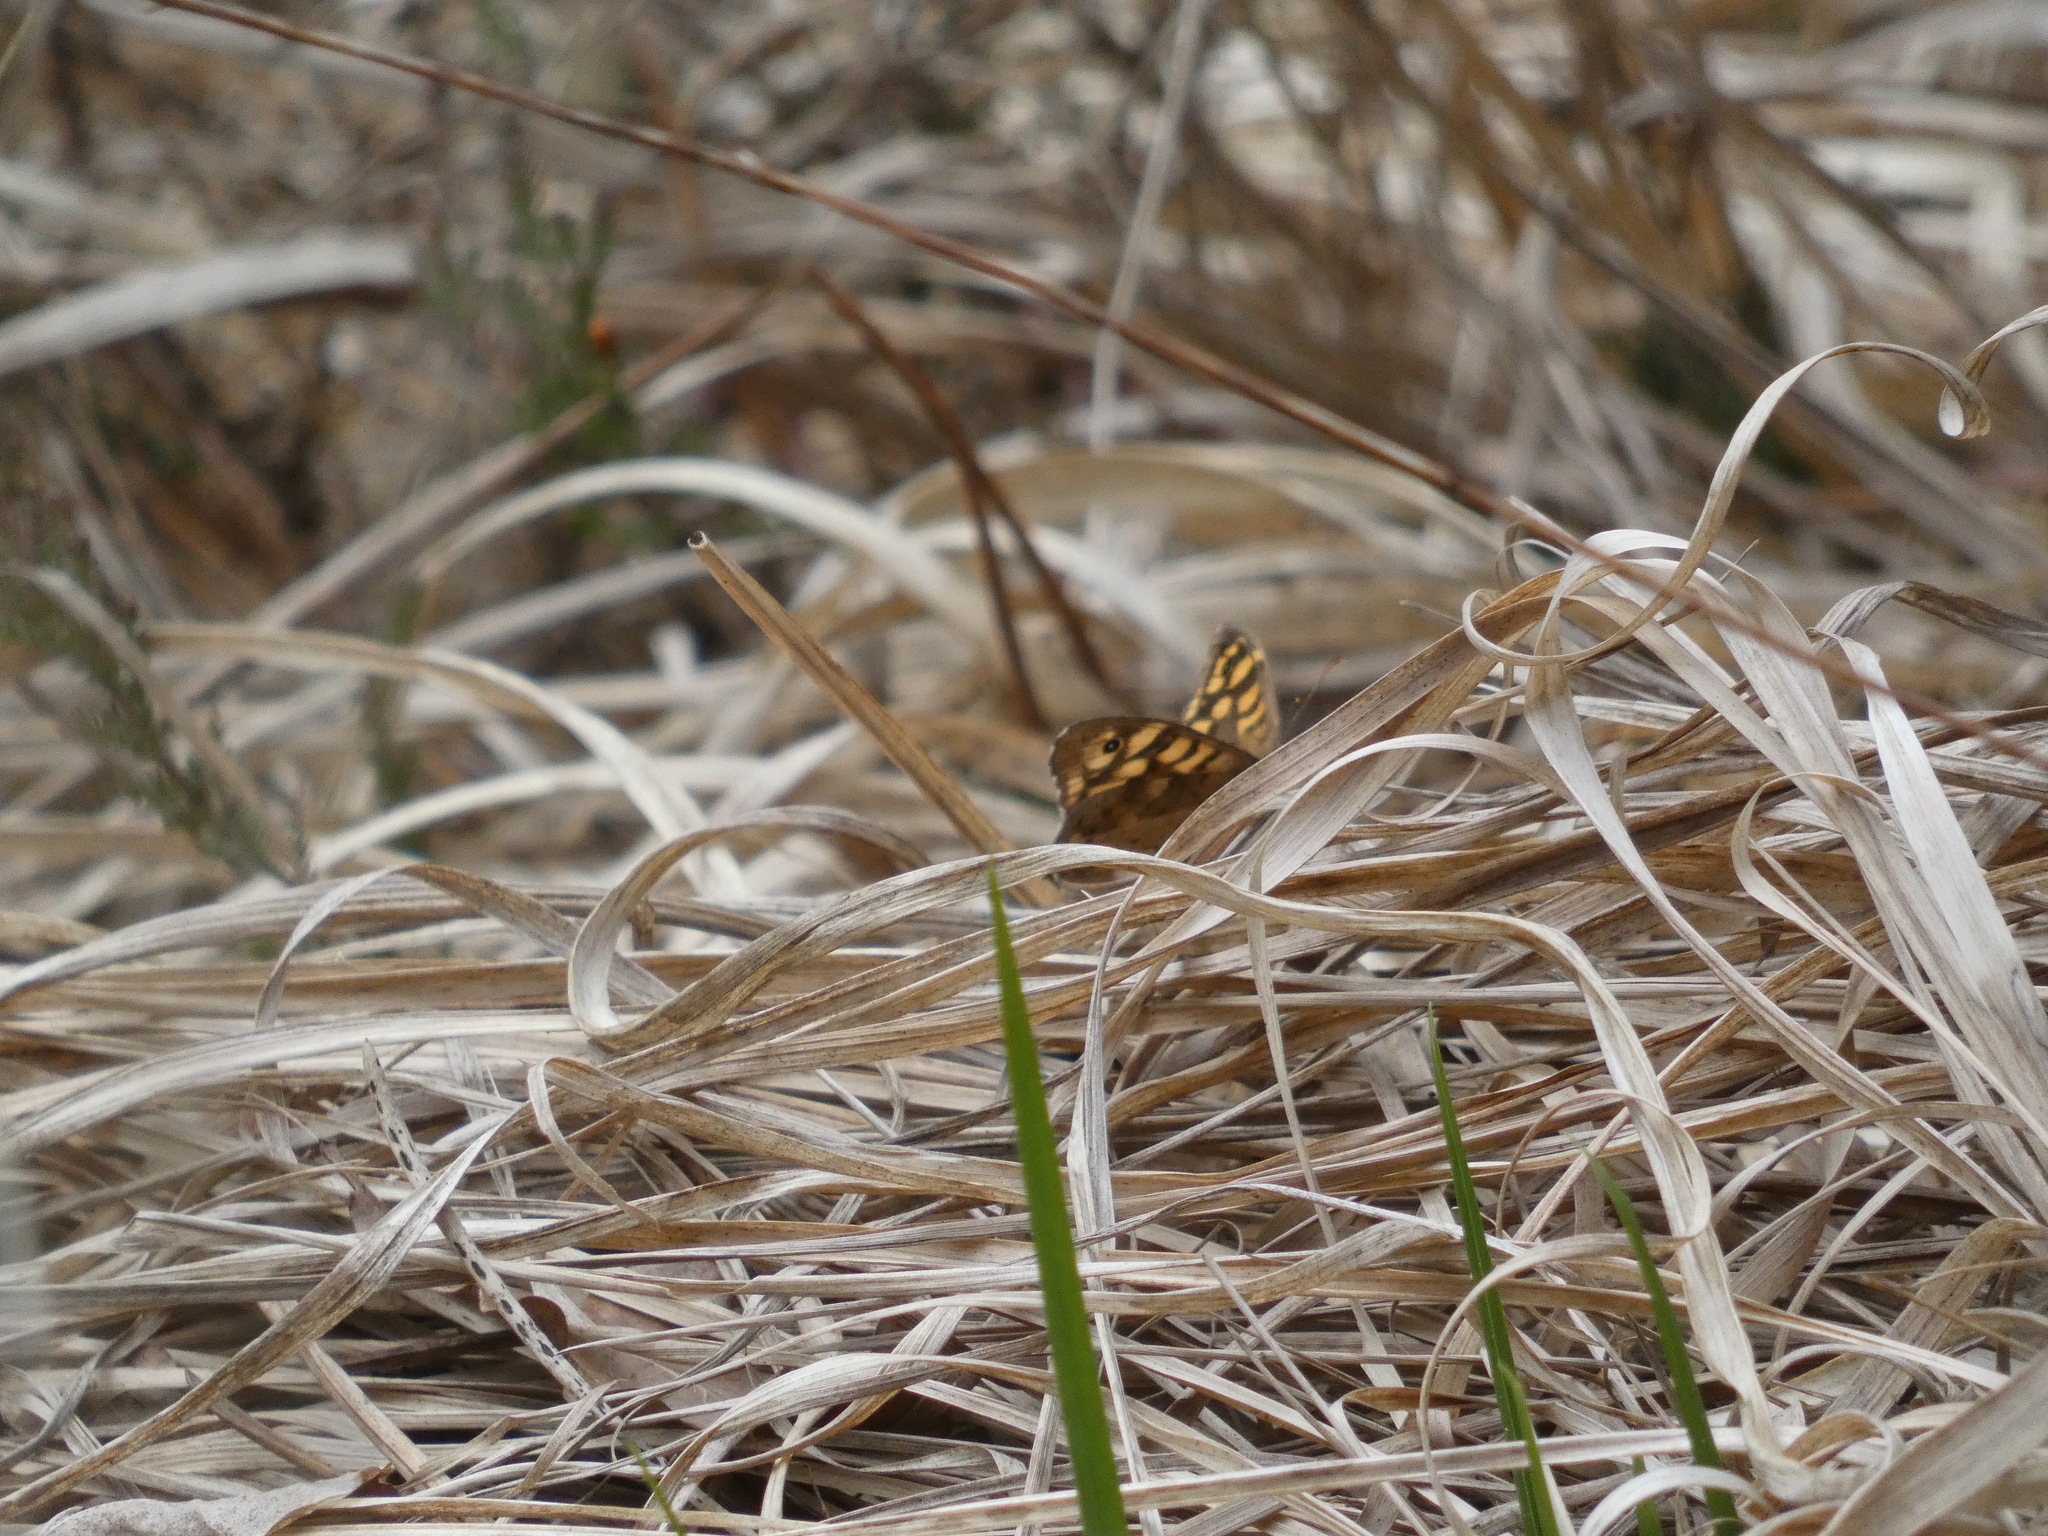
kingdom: Animalia
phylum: Arthropoda
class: Insecta
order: Lepidoptera
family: Nymphalidae
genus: Pararge
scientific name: Pararge aegeria
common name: Speckled wood
